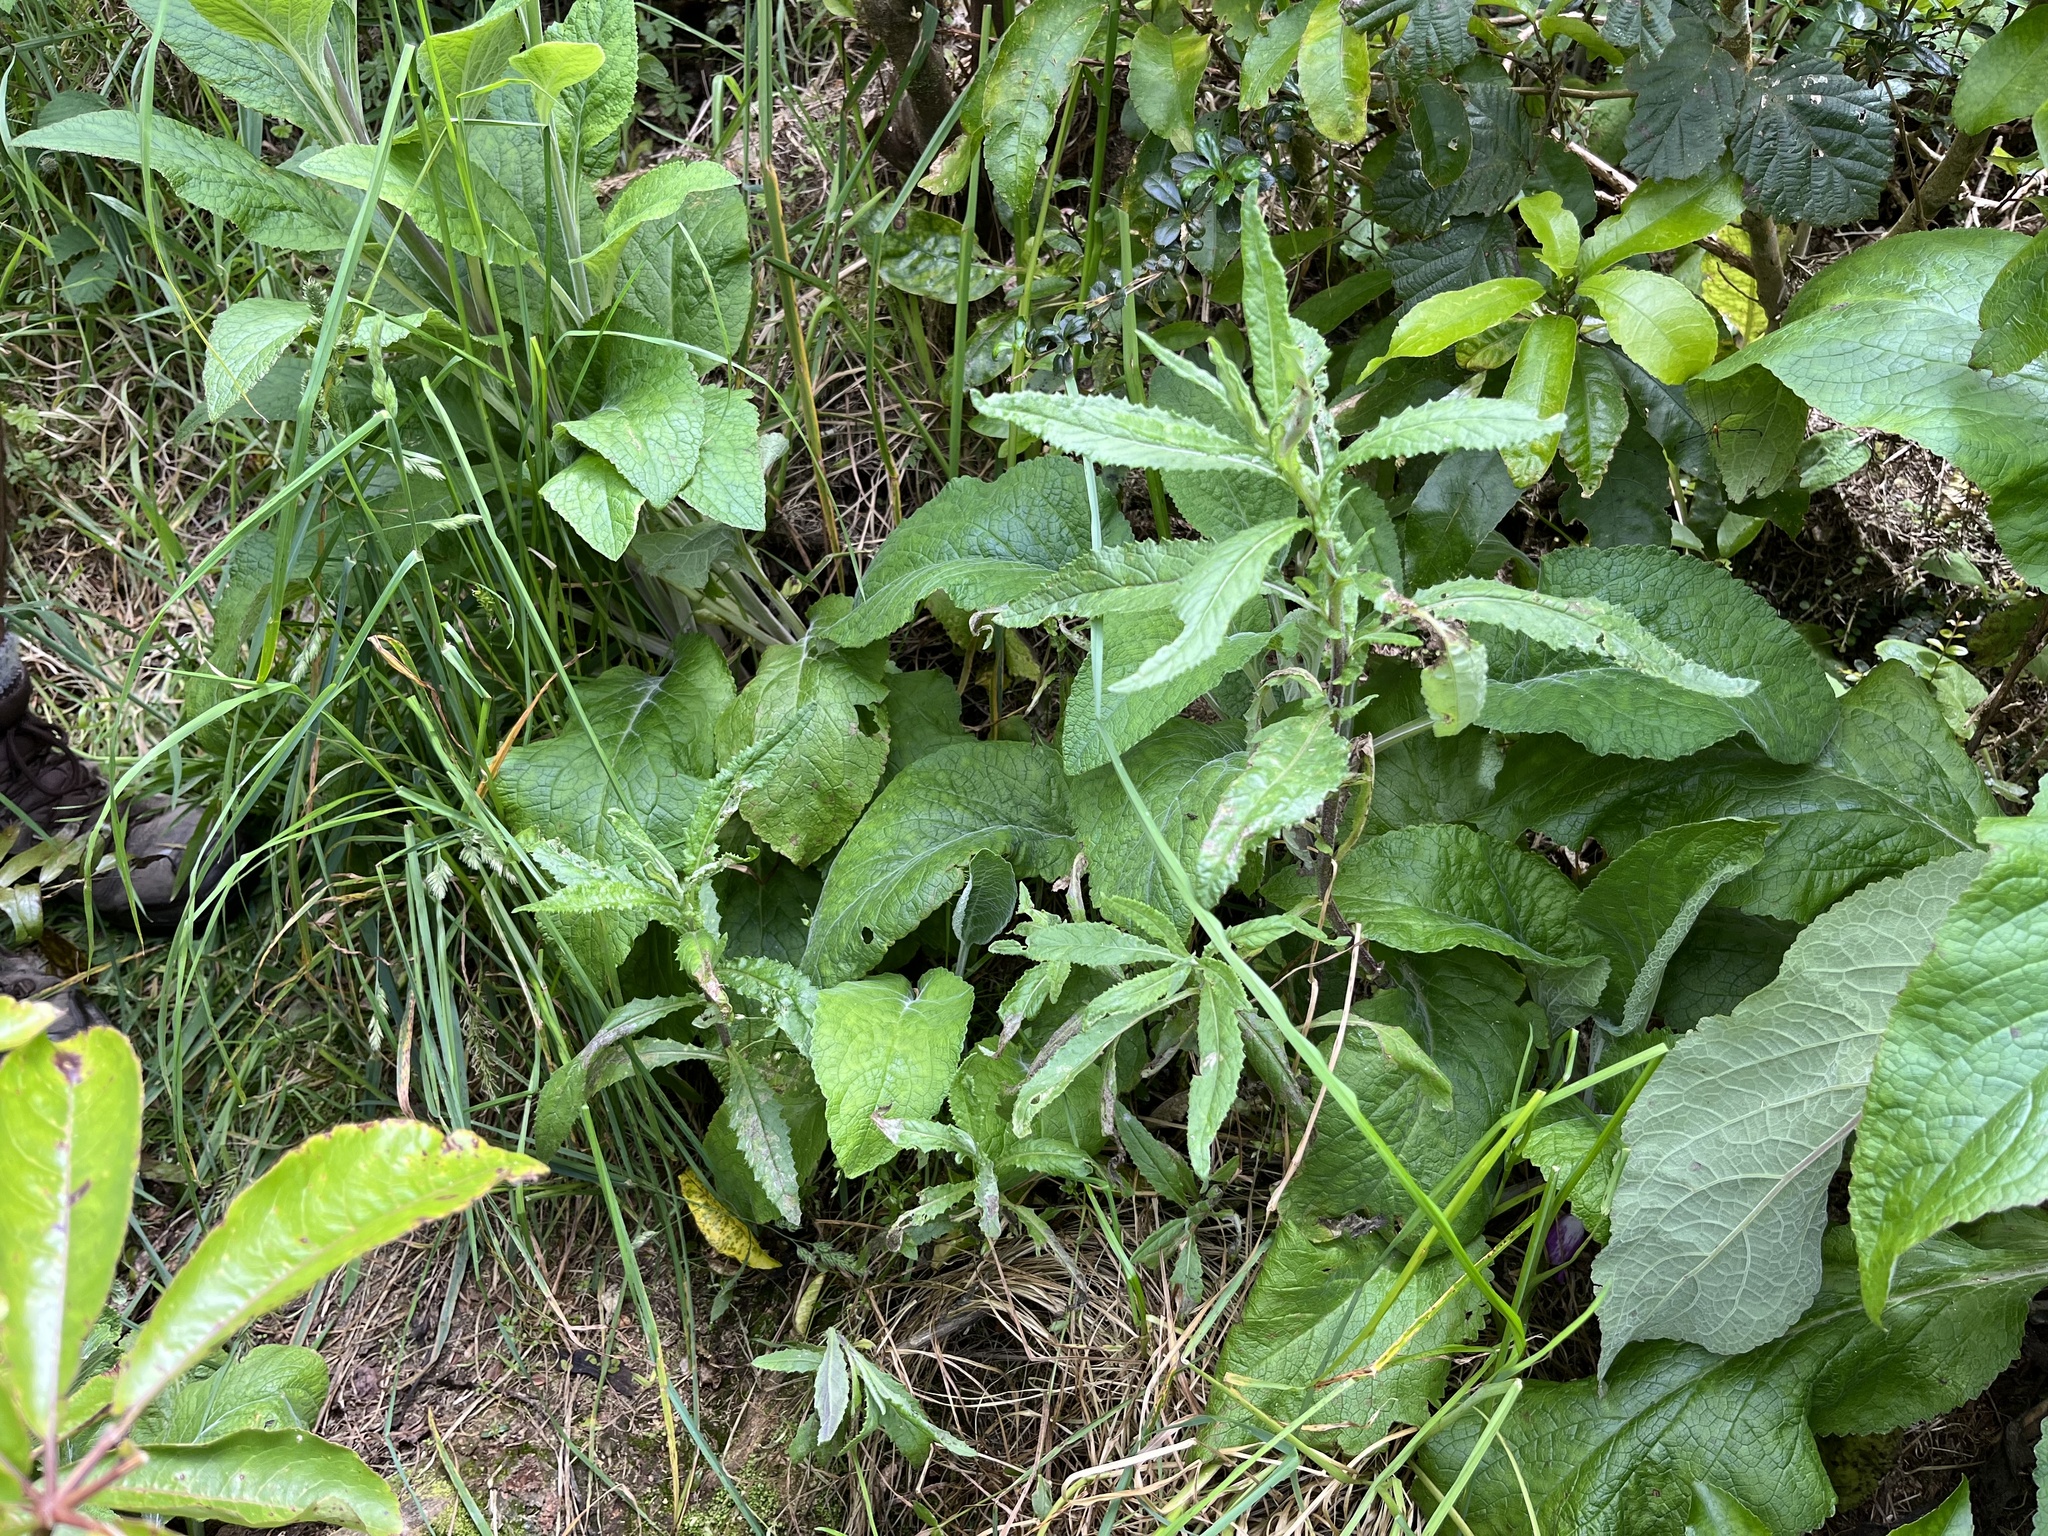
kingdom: Plantae
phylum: Tracheophyta
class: Magnoliopsida
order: Asterales
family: Asteraceae
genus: Senecio
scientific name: Senecio minimus
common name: Toothed fireweed
